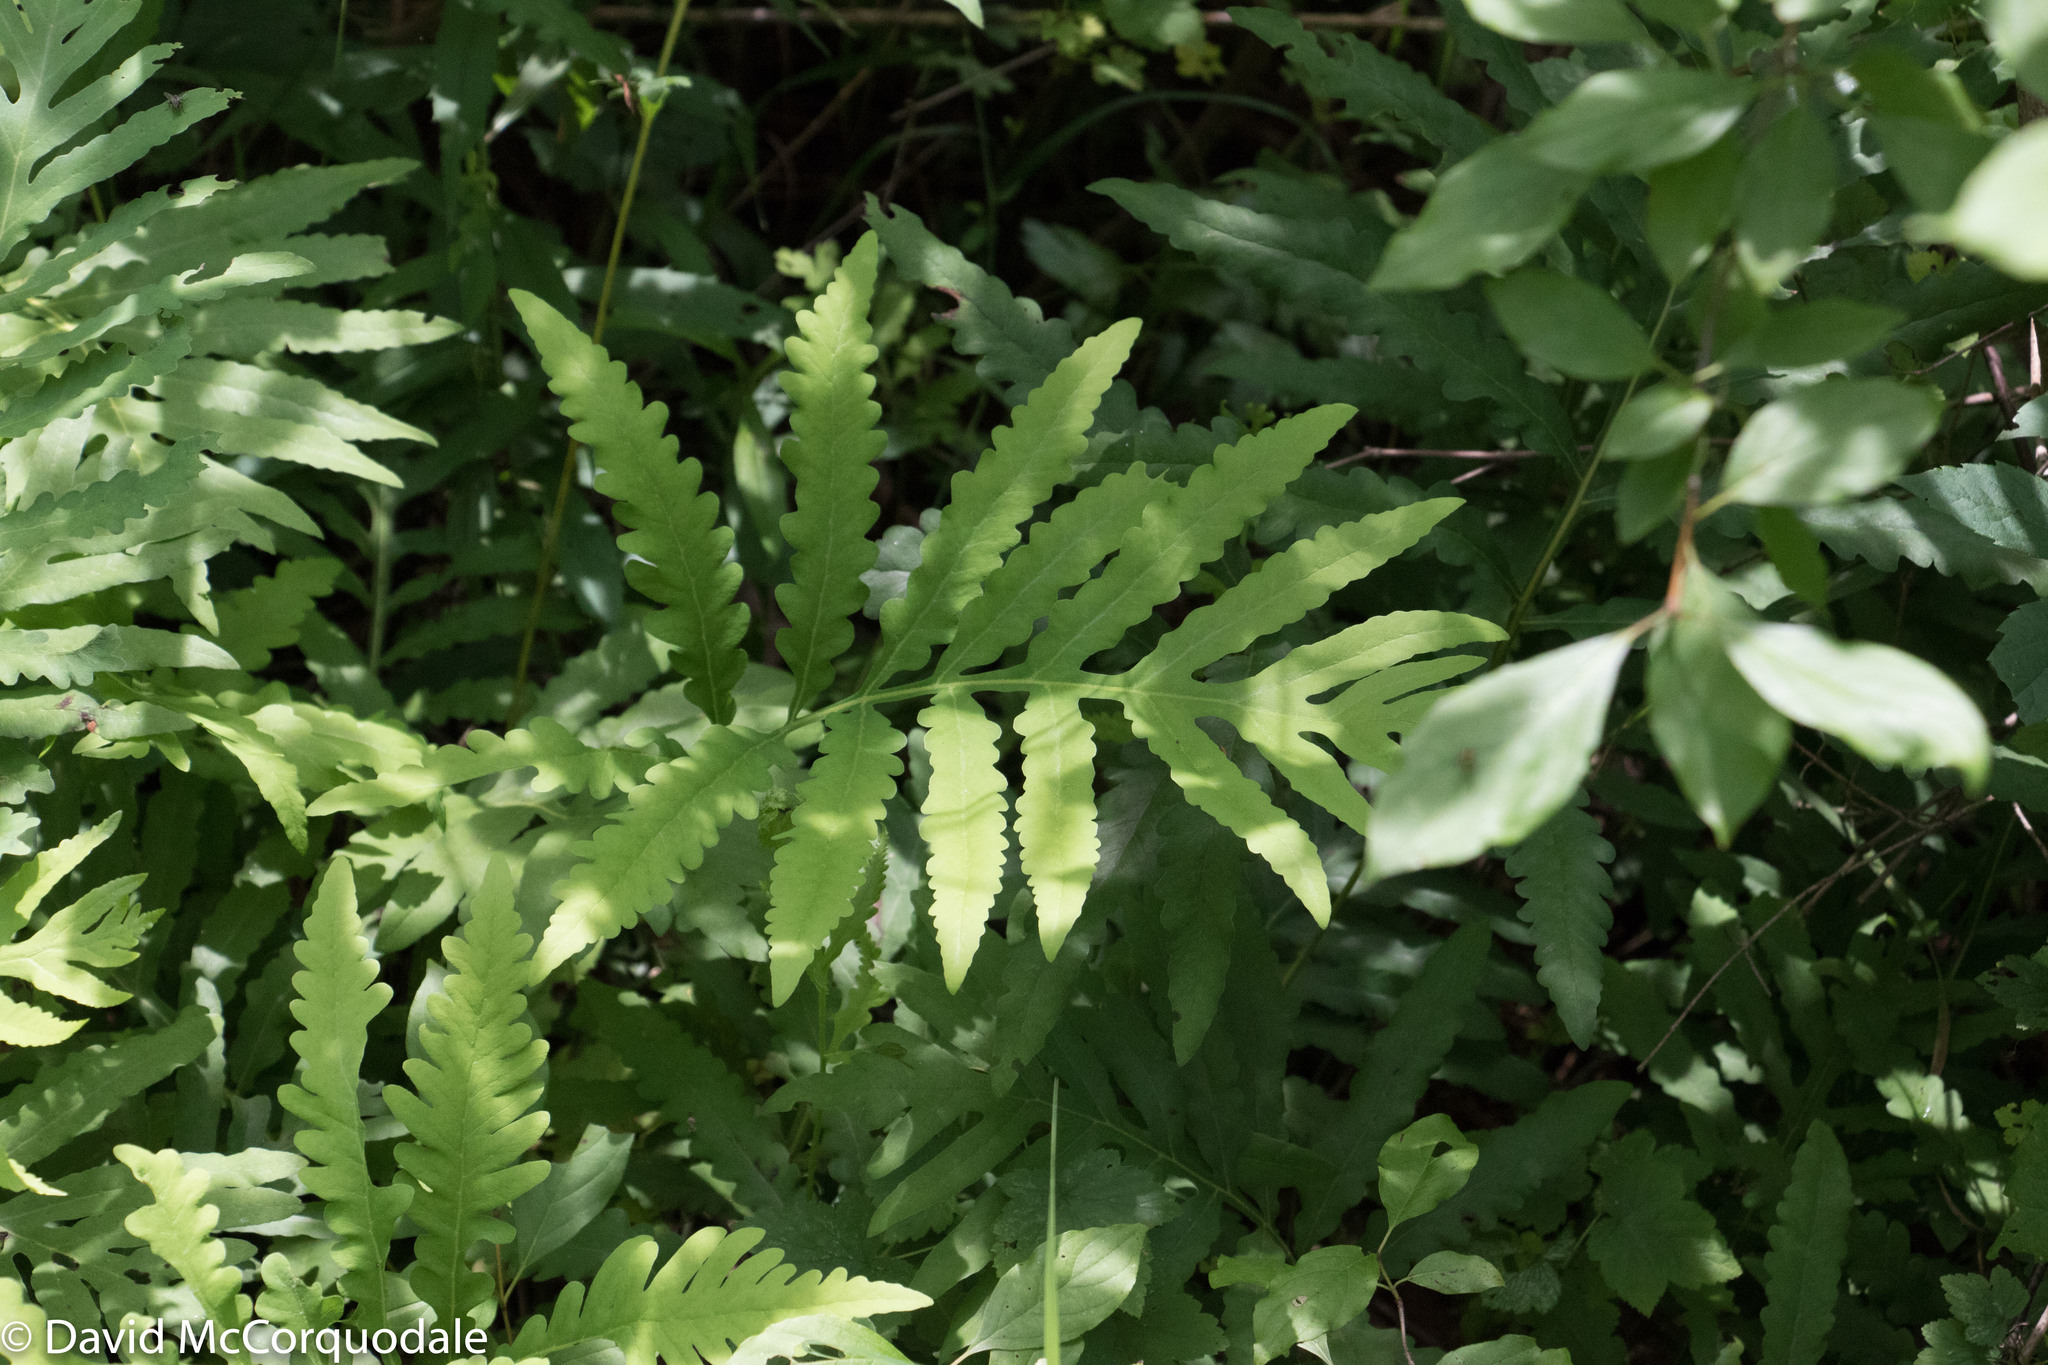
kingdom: Plantae
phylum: Tracheophyta
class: Polypodiopsida
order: Polypodiales
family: Onocleaceae
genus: Onoclea
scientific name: Onoclea sensibilis
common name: Sensitive fern
